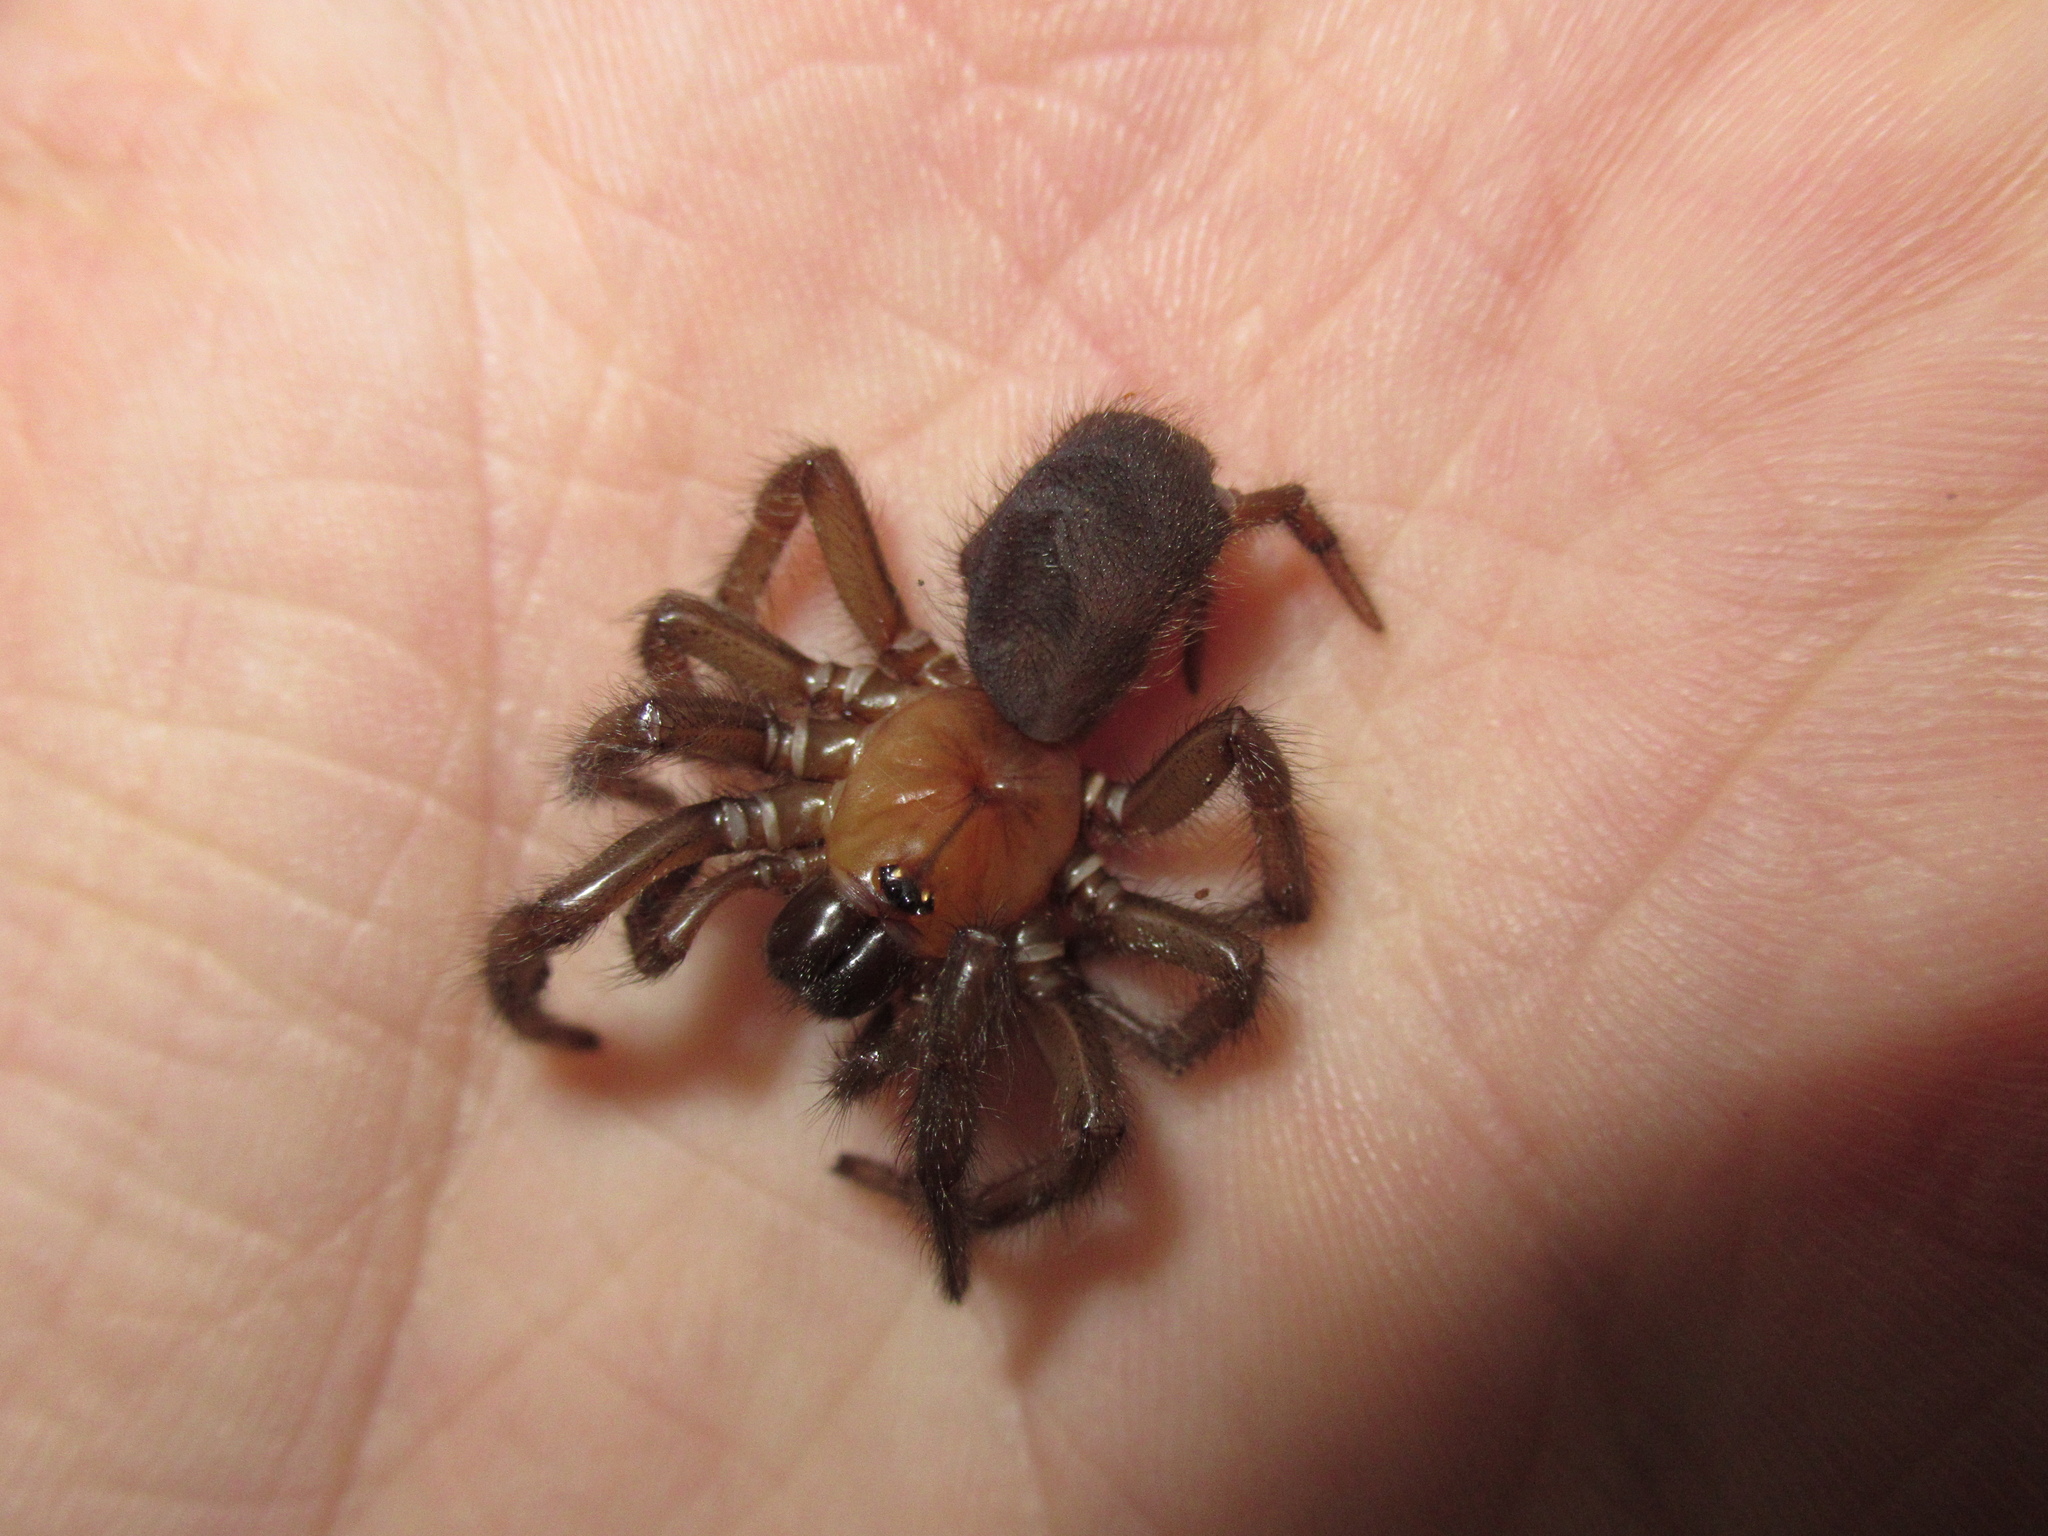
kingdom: Animalia
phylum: Arthropoda
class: Arachnida
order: Araneae
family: Porrhothelidae
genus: Porrhothele
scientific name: Porrhothele antipodiana
